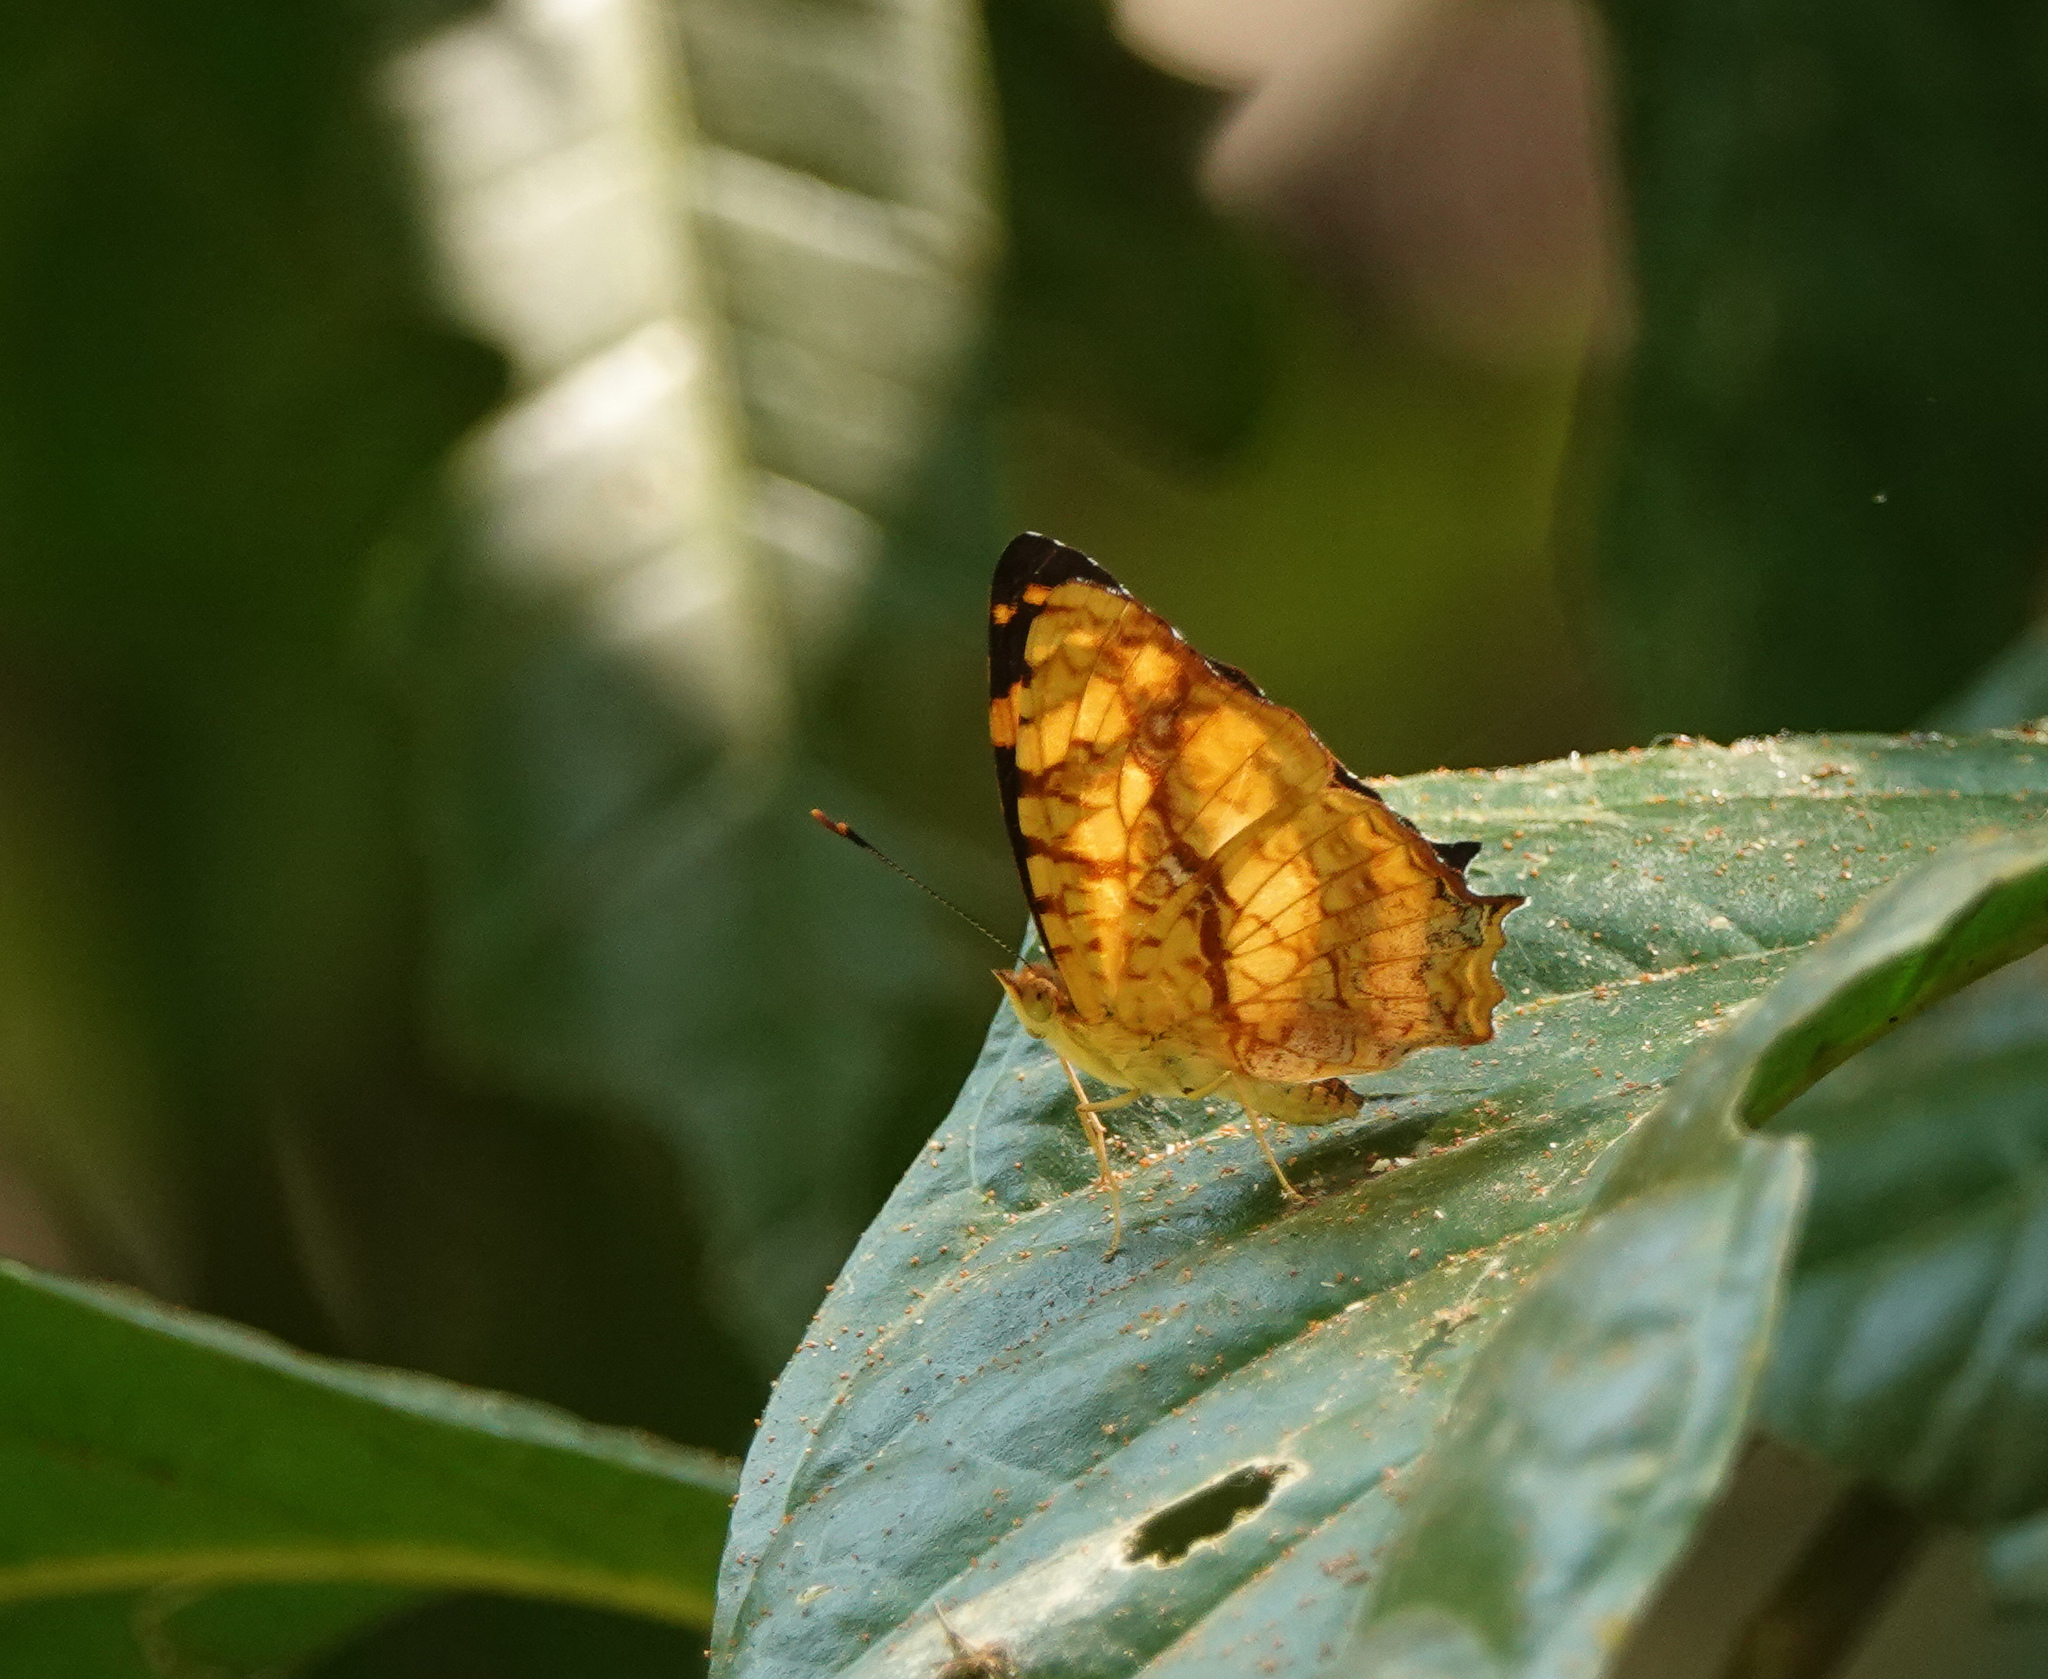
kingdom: Animalia
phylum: Arthropoda
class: Insecta
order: Lepidoptera
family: Nymphalidae
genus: Symbrenthia
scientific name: Symbrenthia hypselis
